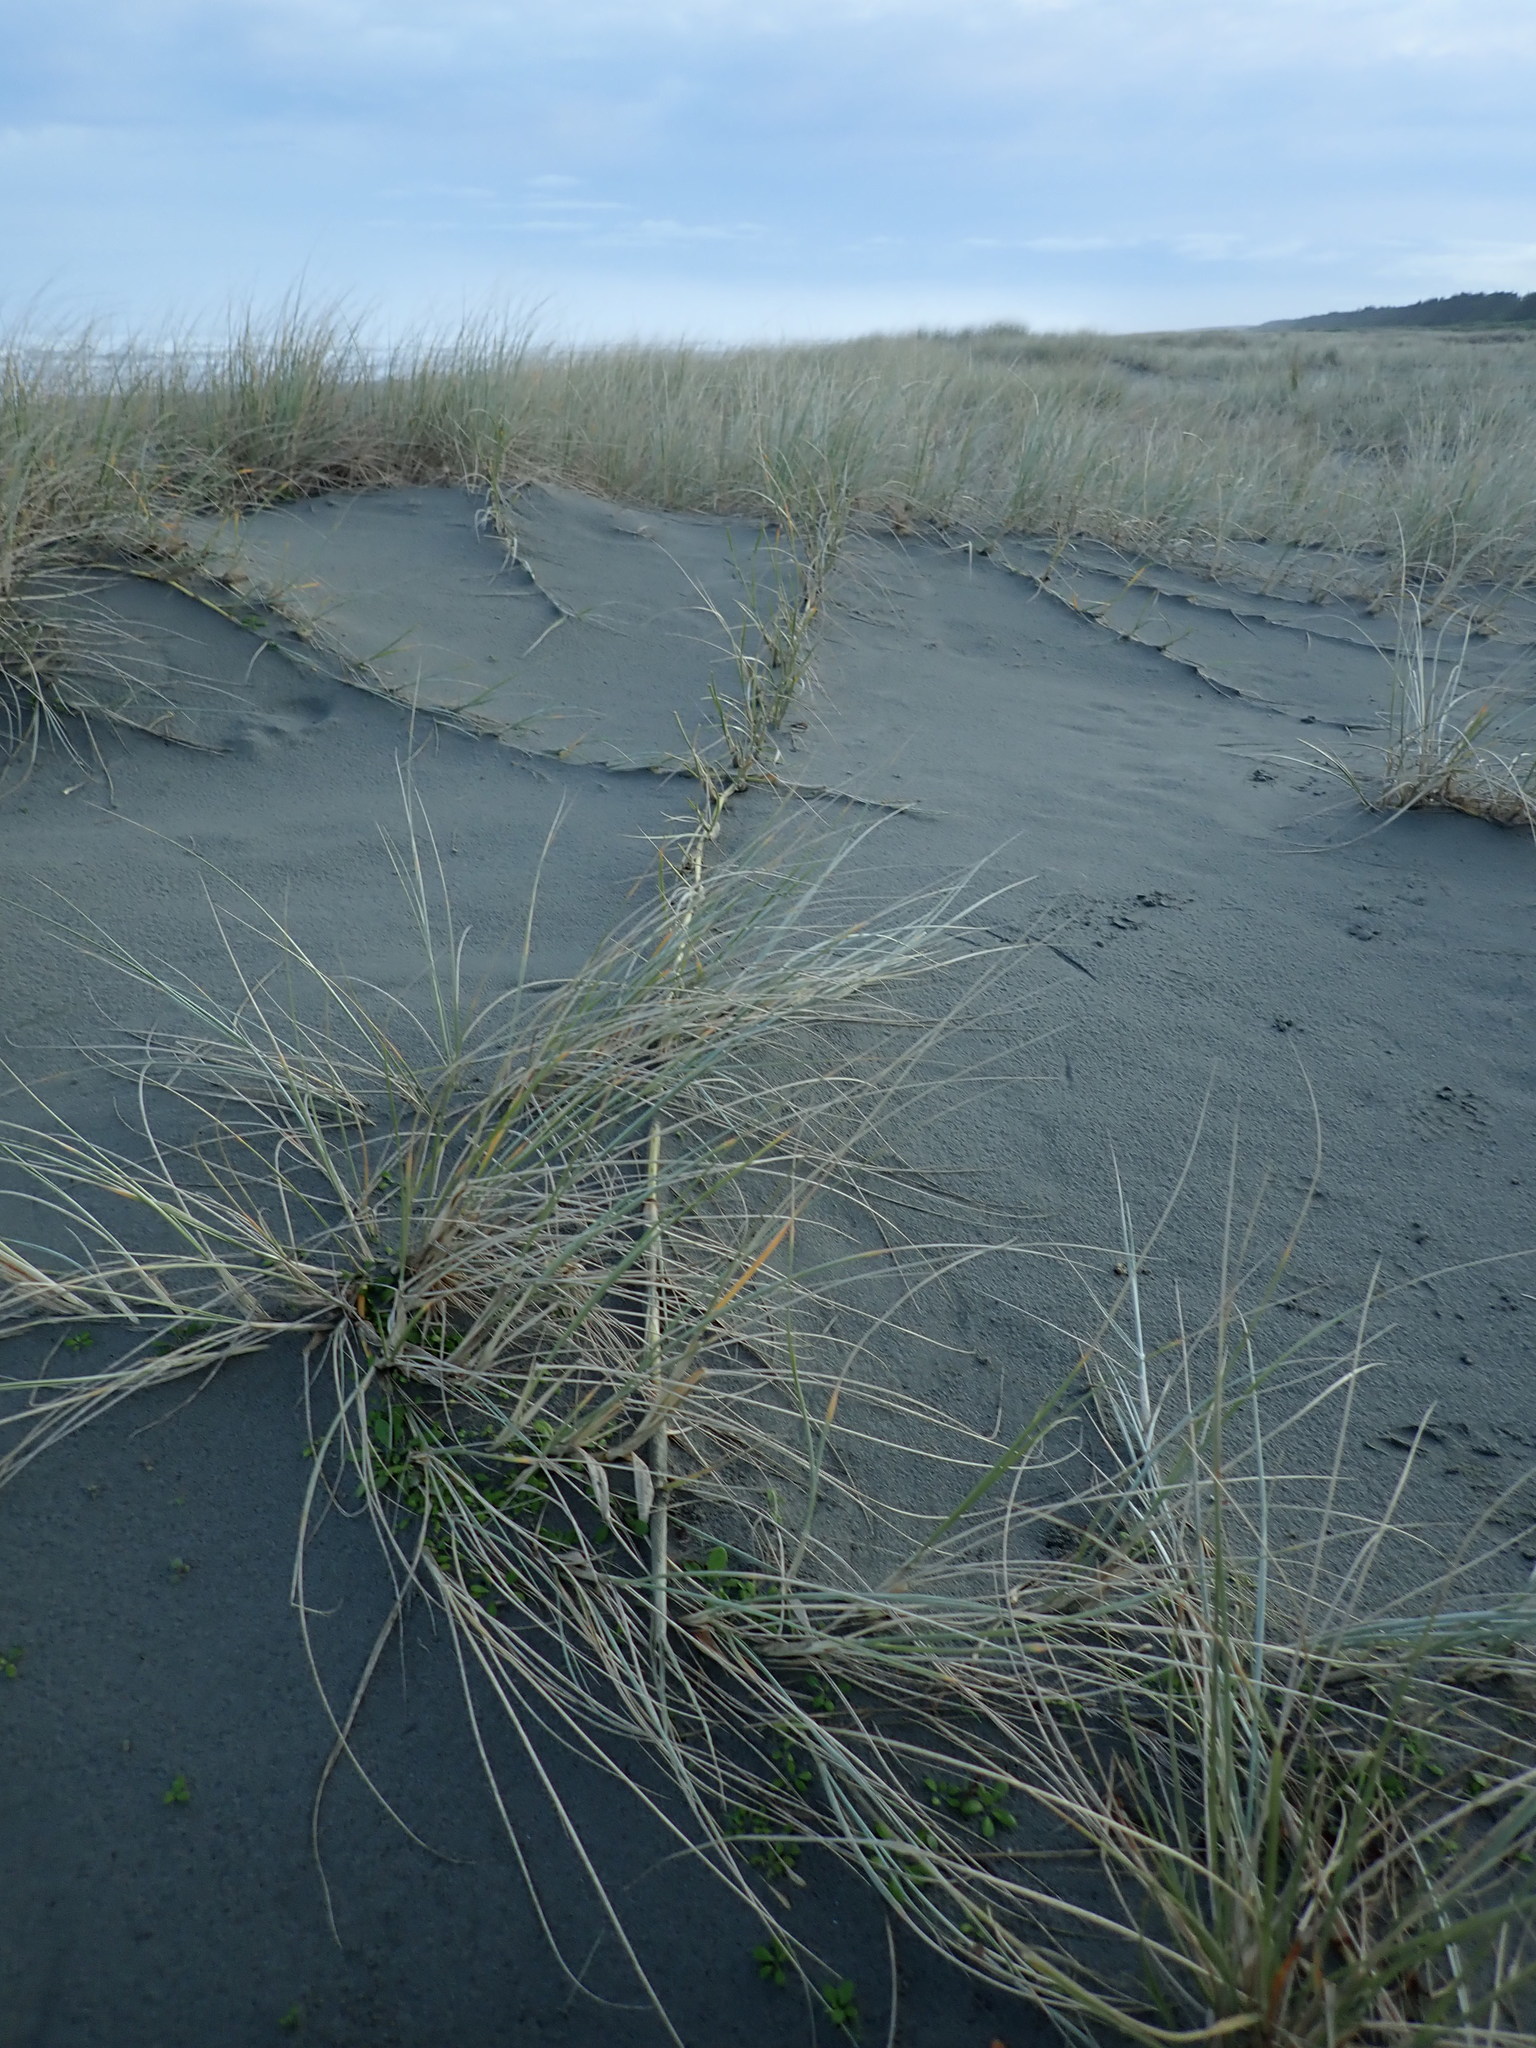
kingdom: Plantae
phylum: Tracheophyta
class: Liliopsida
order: Poales
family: Poaceae
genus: Spinifex
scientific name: Spinifex sericeus
